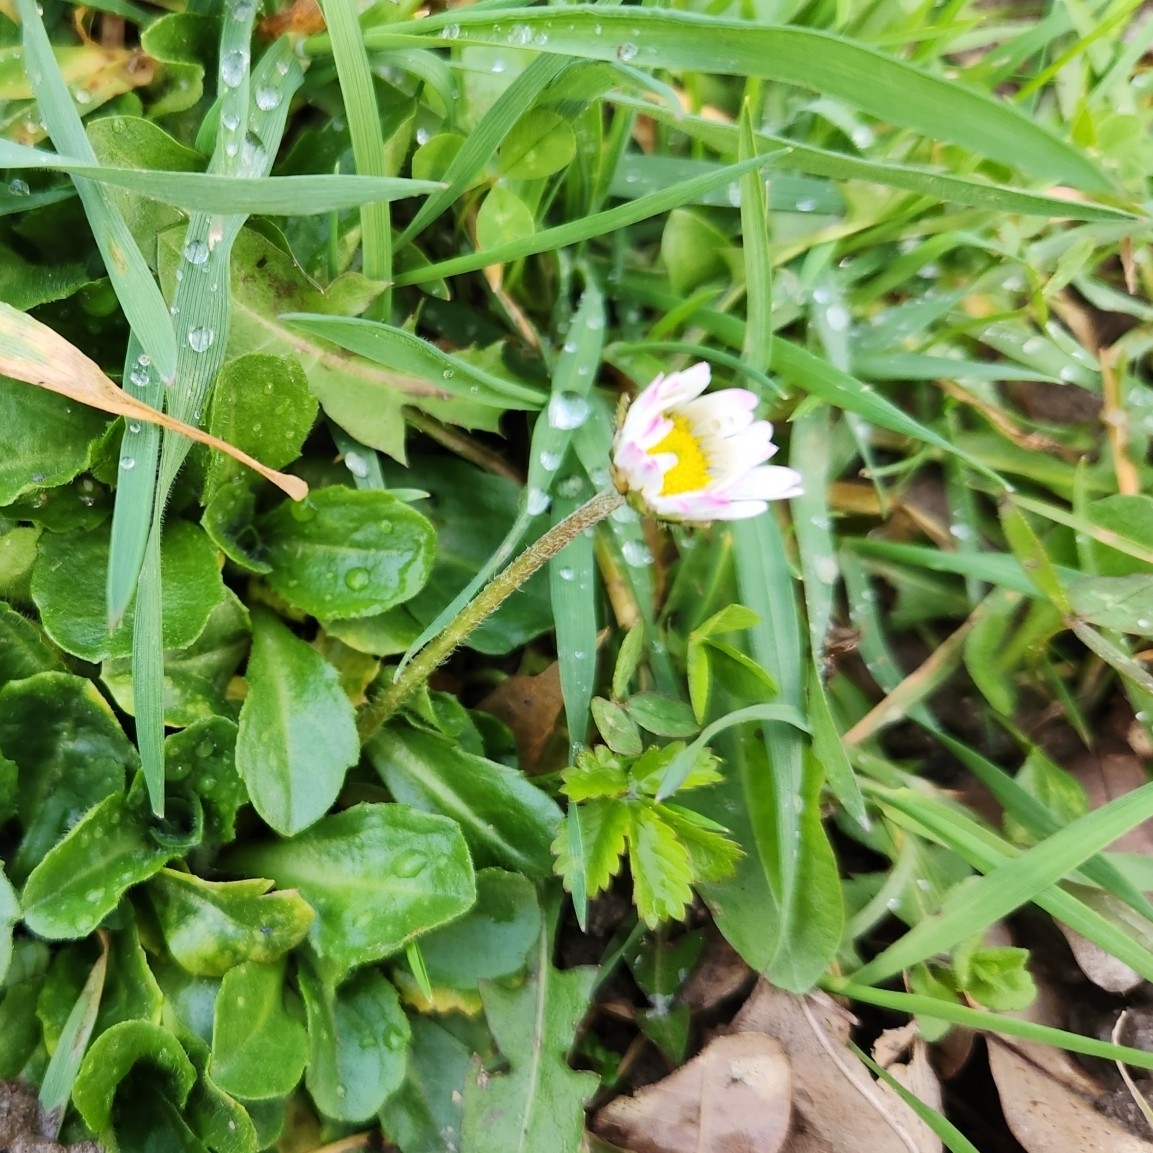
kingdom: Plantae
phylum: Tracheophyta
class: Magnoliopsida
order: Asterales
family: Asteraceae
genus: Bellis
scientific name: Bellis perennis
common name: Lawndaisy
